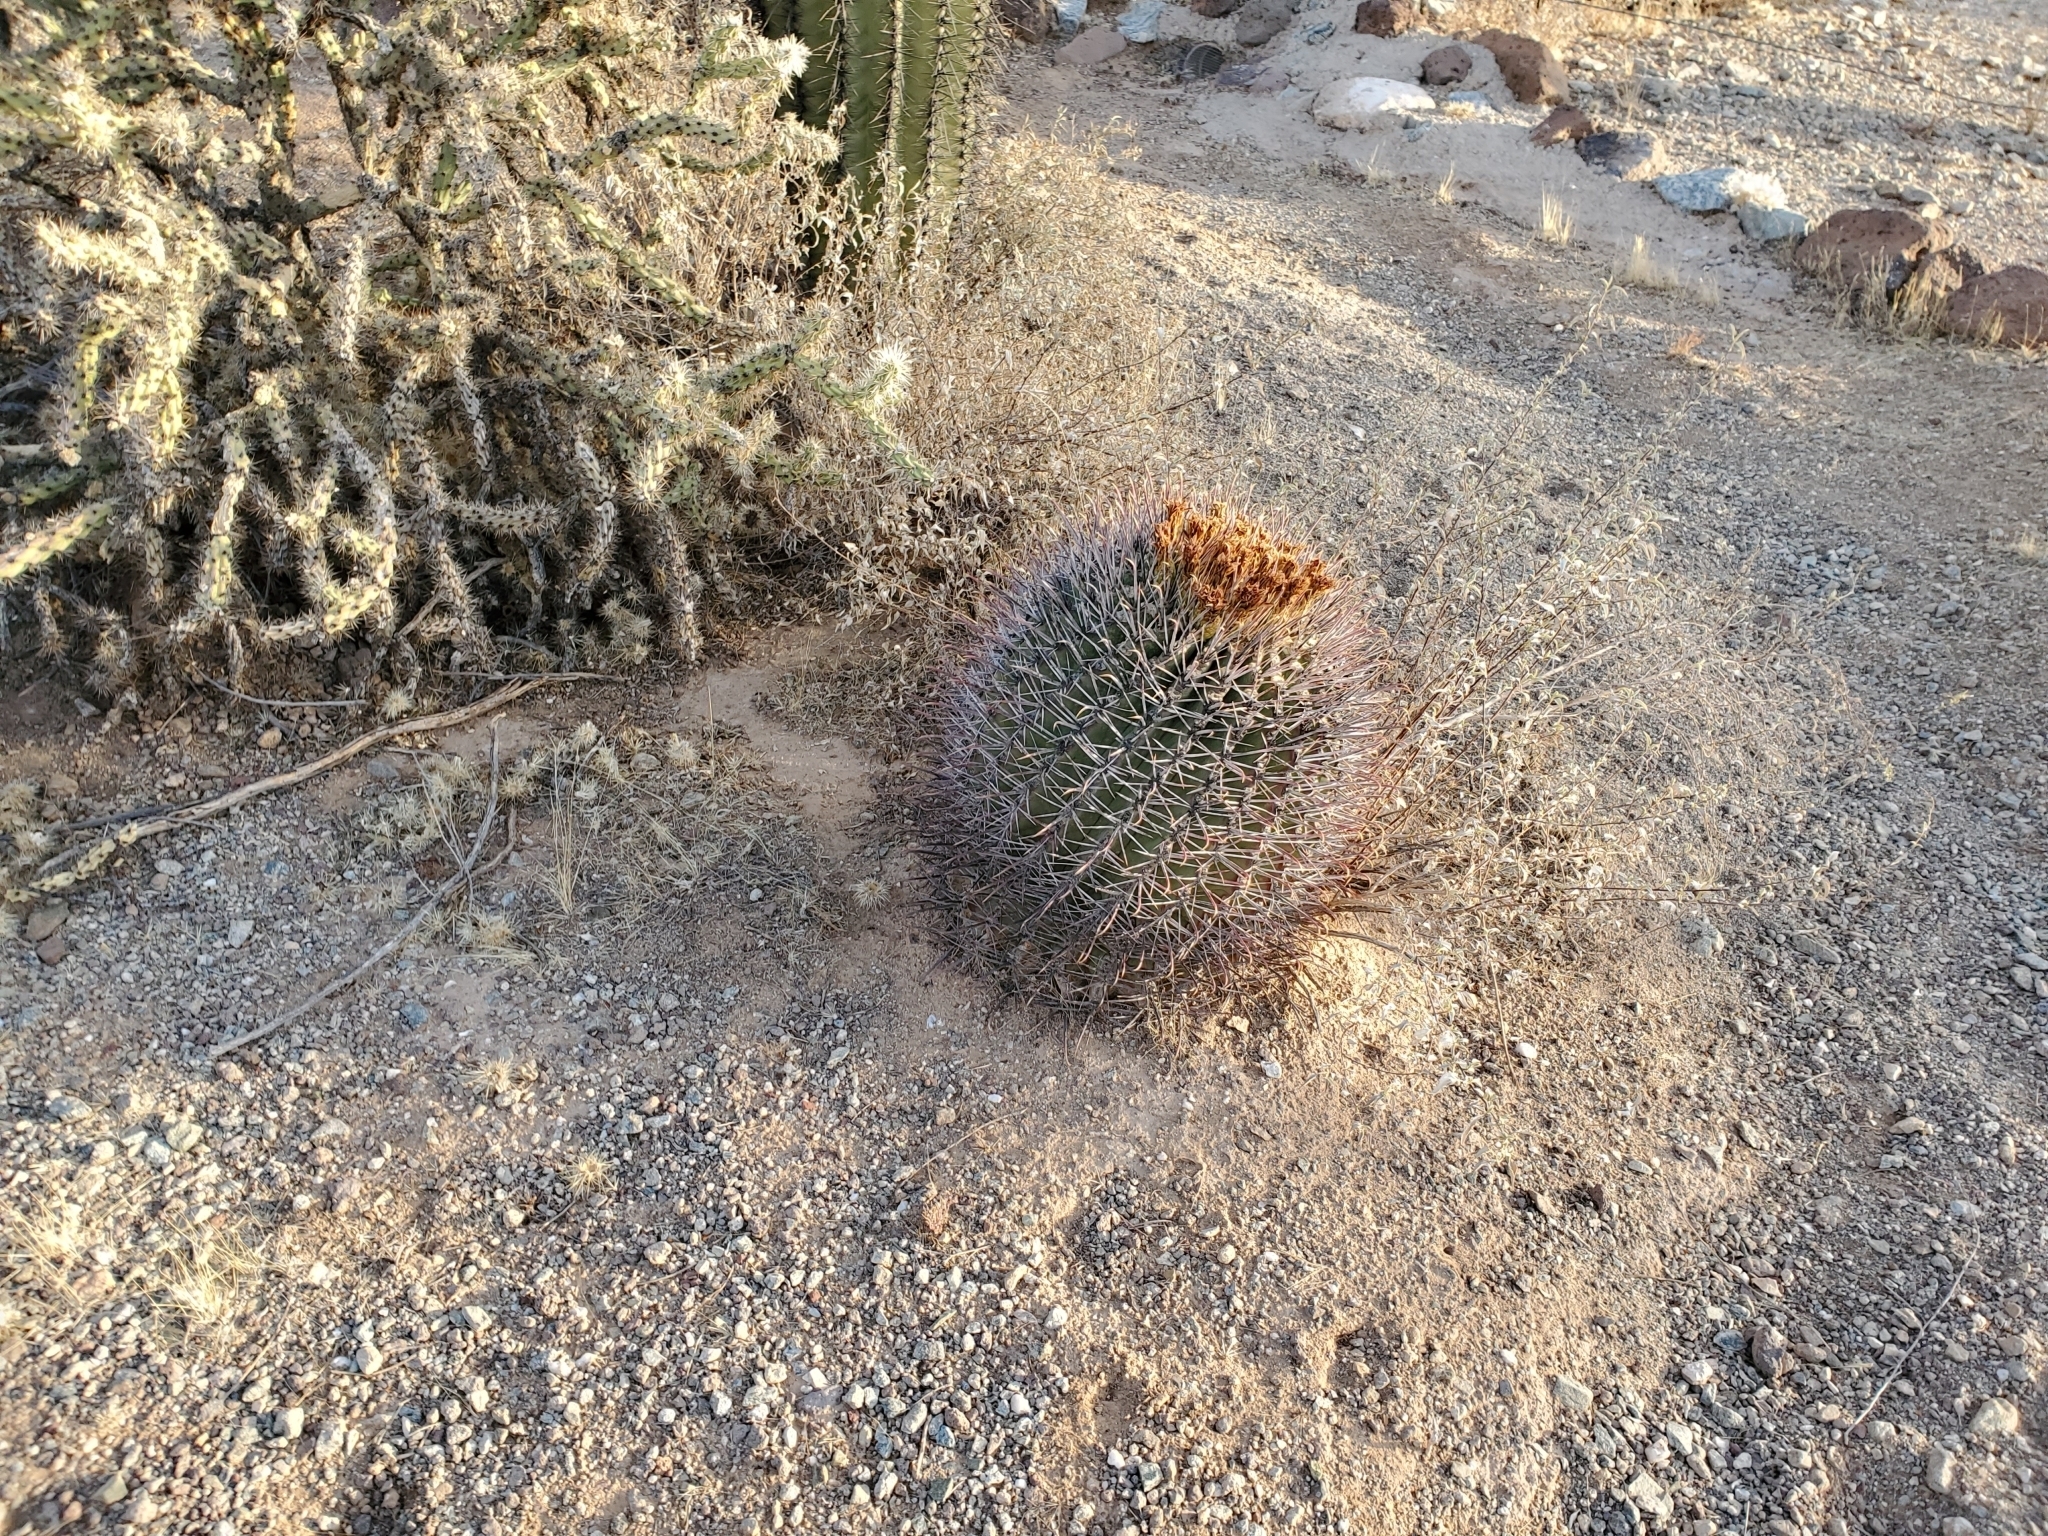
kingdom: Plantae
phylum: Tracheophyta
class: Magnoliopsida
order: Caryophyllales
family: Cactaceae
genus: Ferocactus
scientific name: Ferocactus emoryi
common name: Emory's barrel cactus
